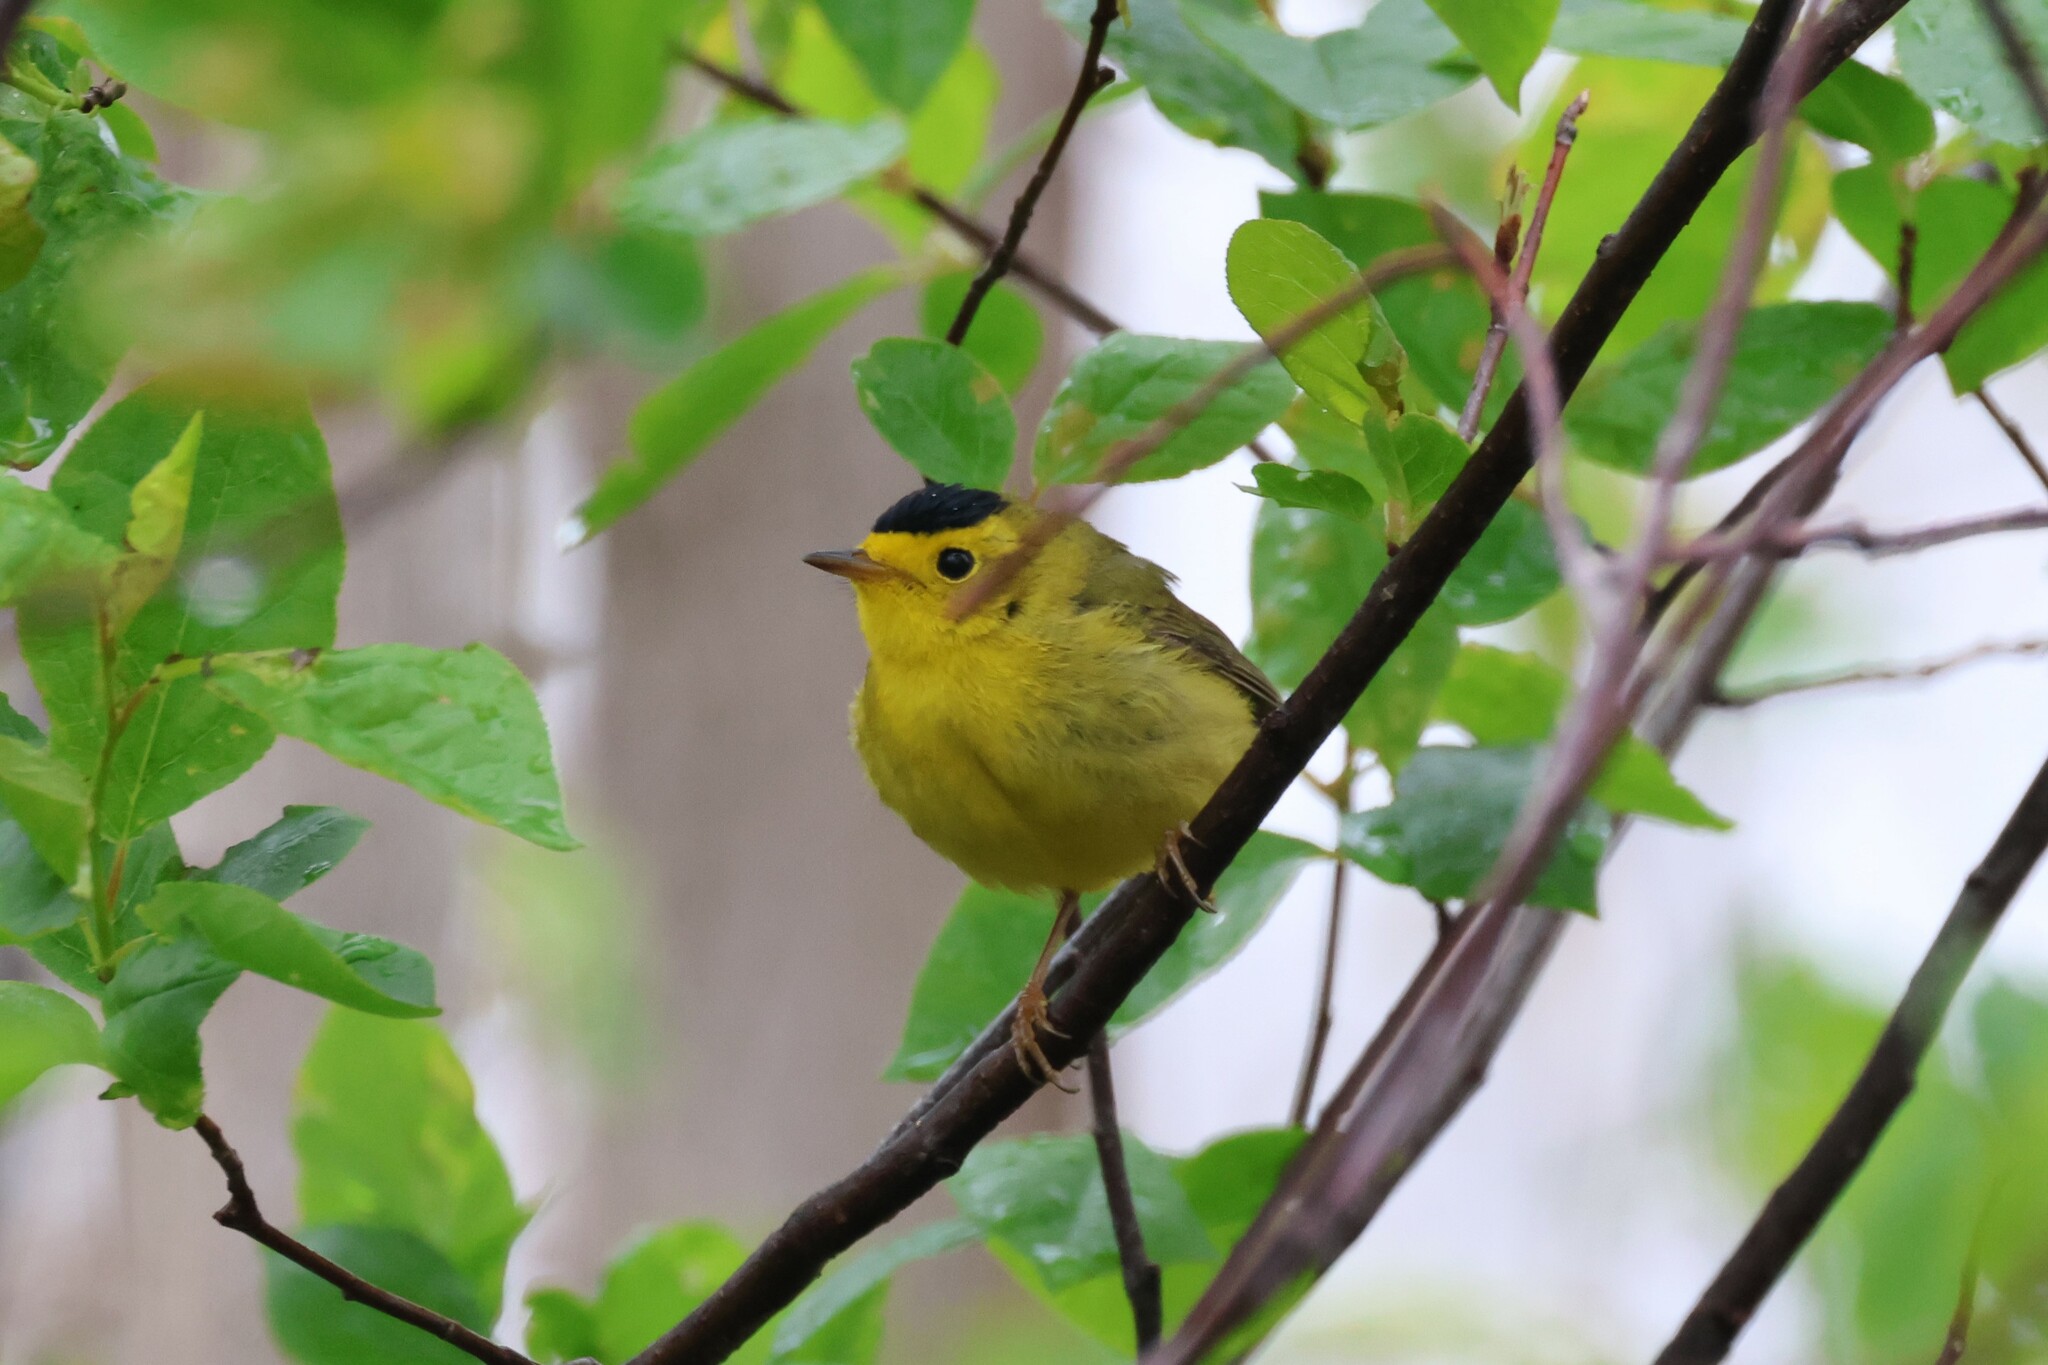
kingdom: Animalia
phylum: Chordata
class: Aves
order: Passeriformes
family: Parulidae
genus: Cardellina
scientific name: Cardellina pusilla
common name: Wilson's warbler
